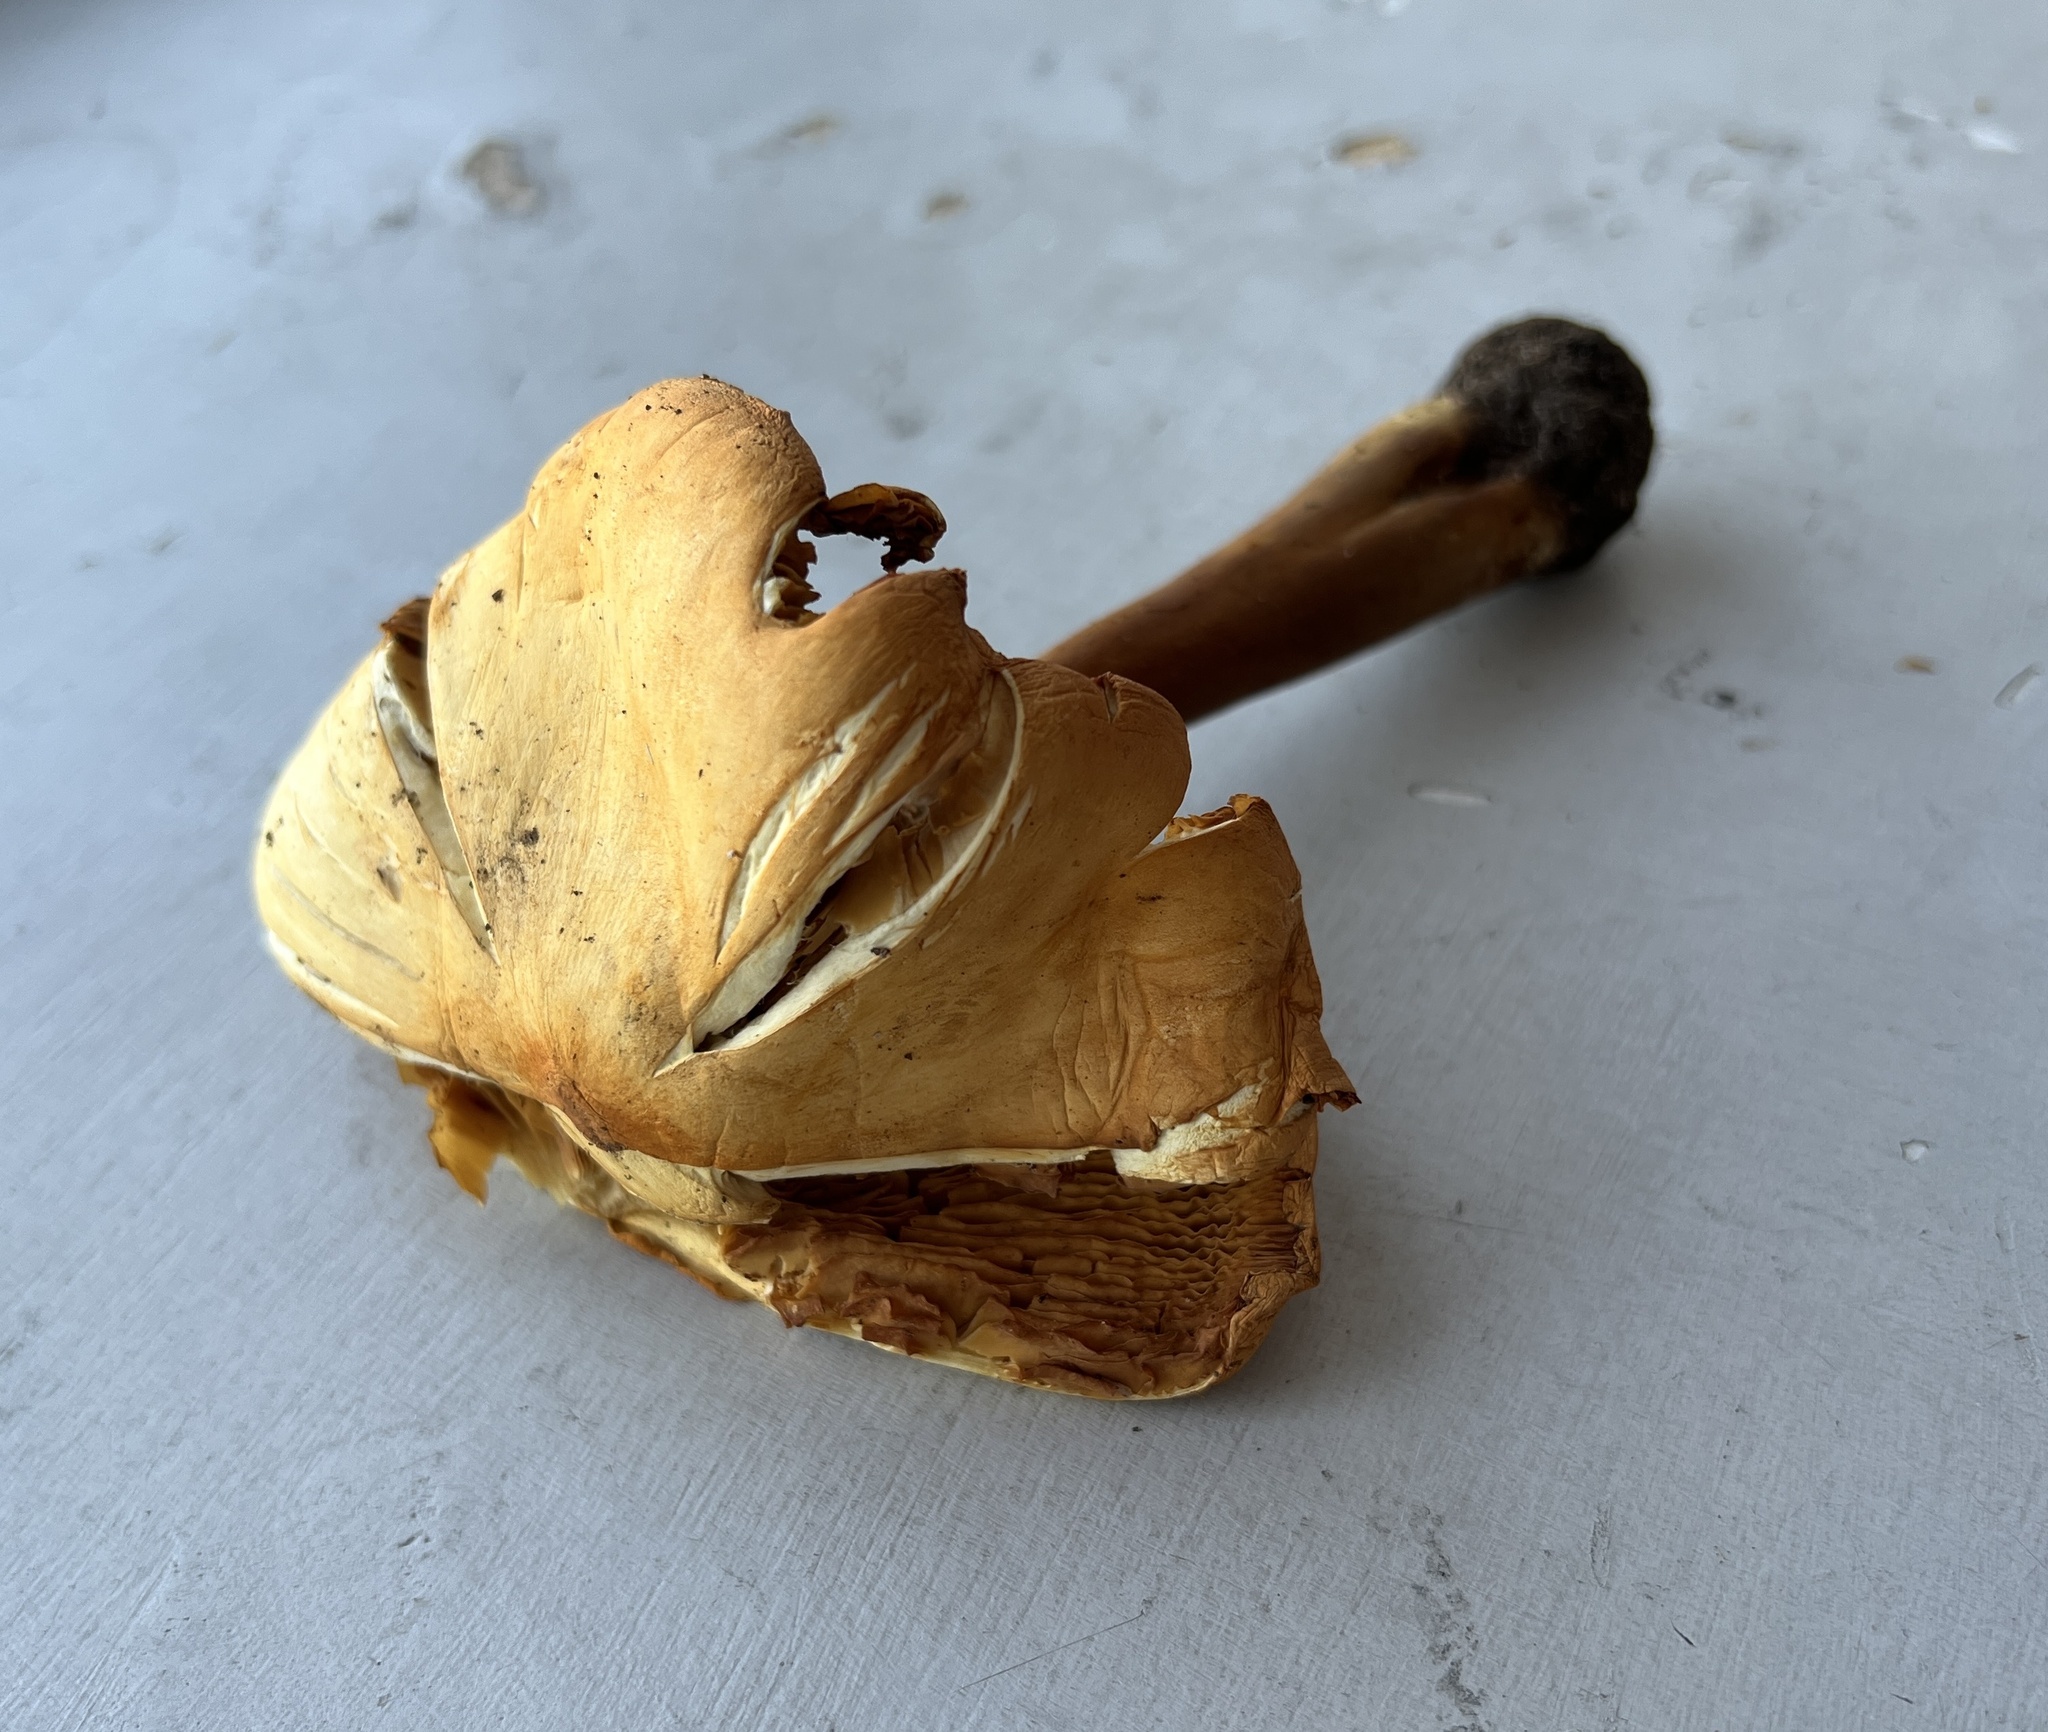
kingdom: Fungi
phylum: Basidiomycota
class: Agaricomycetes
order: Agaricales
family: Tricholomataceae
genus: Phaeolepiota
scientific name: Phaeolepiota aurea
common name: Golden bootleg
